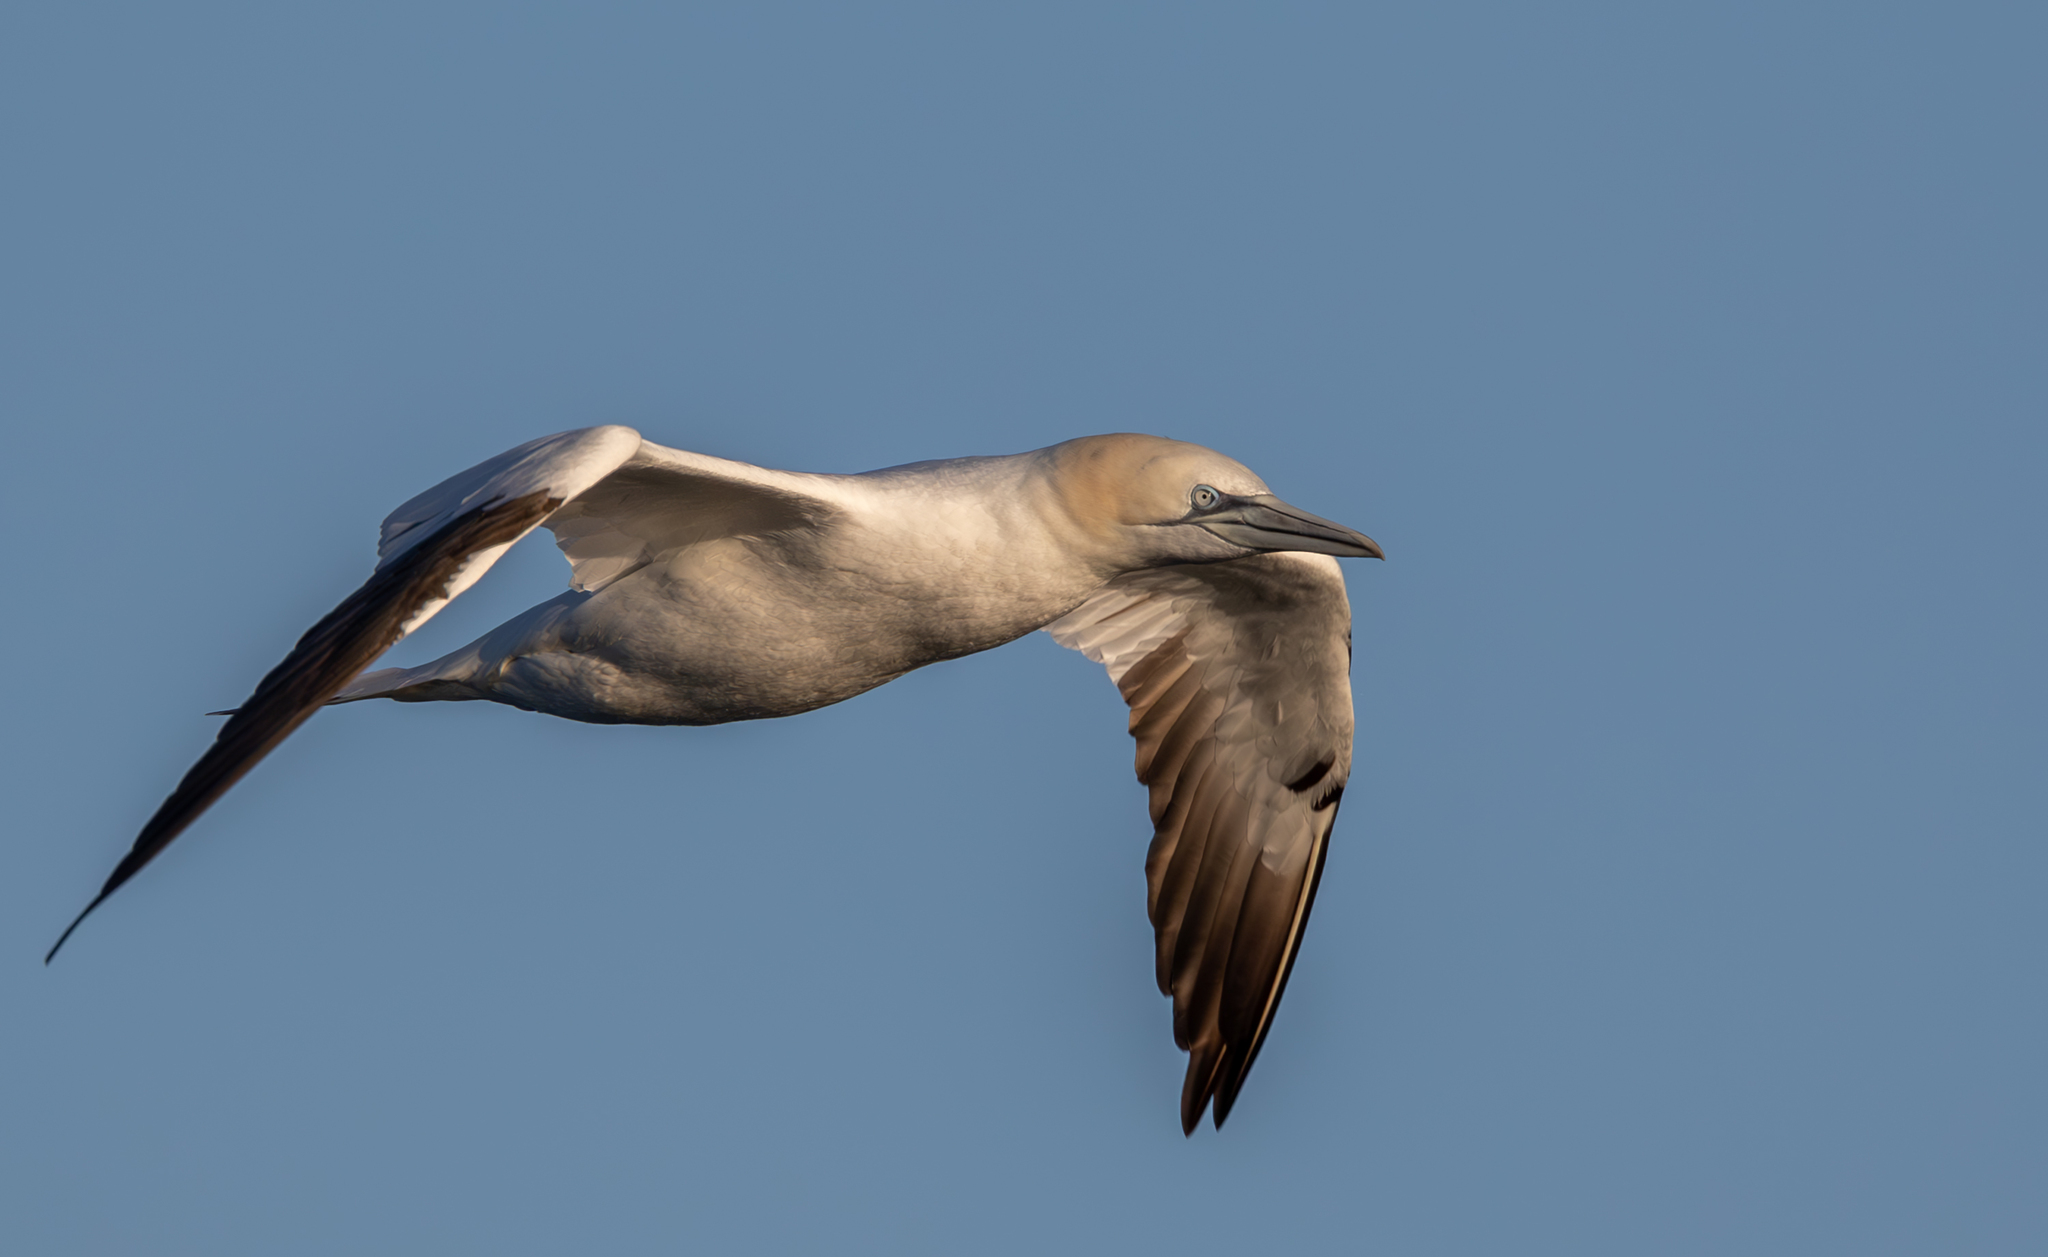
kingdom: Animalia
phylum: Chordata
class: Aves
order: Suliformes
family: Sulidae
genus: Morus
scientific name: Morus bassanus
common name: Northern gannet
